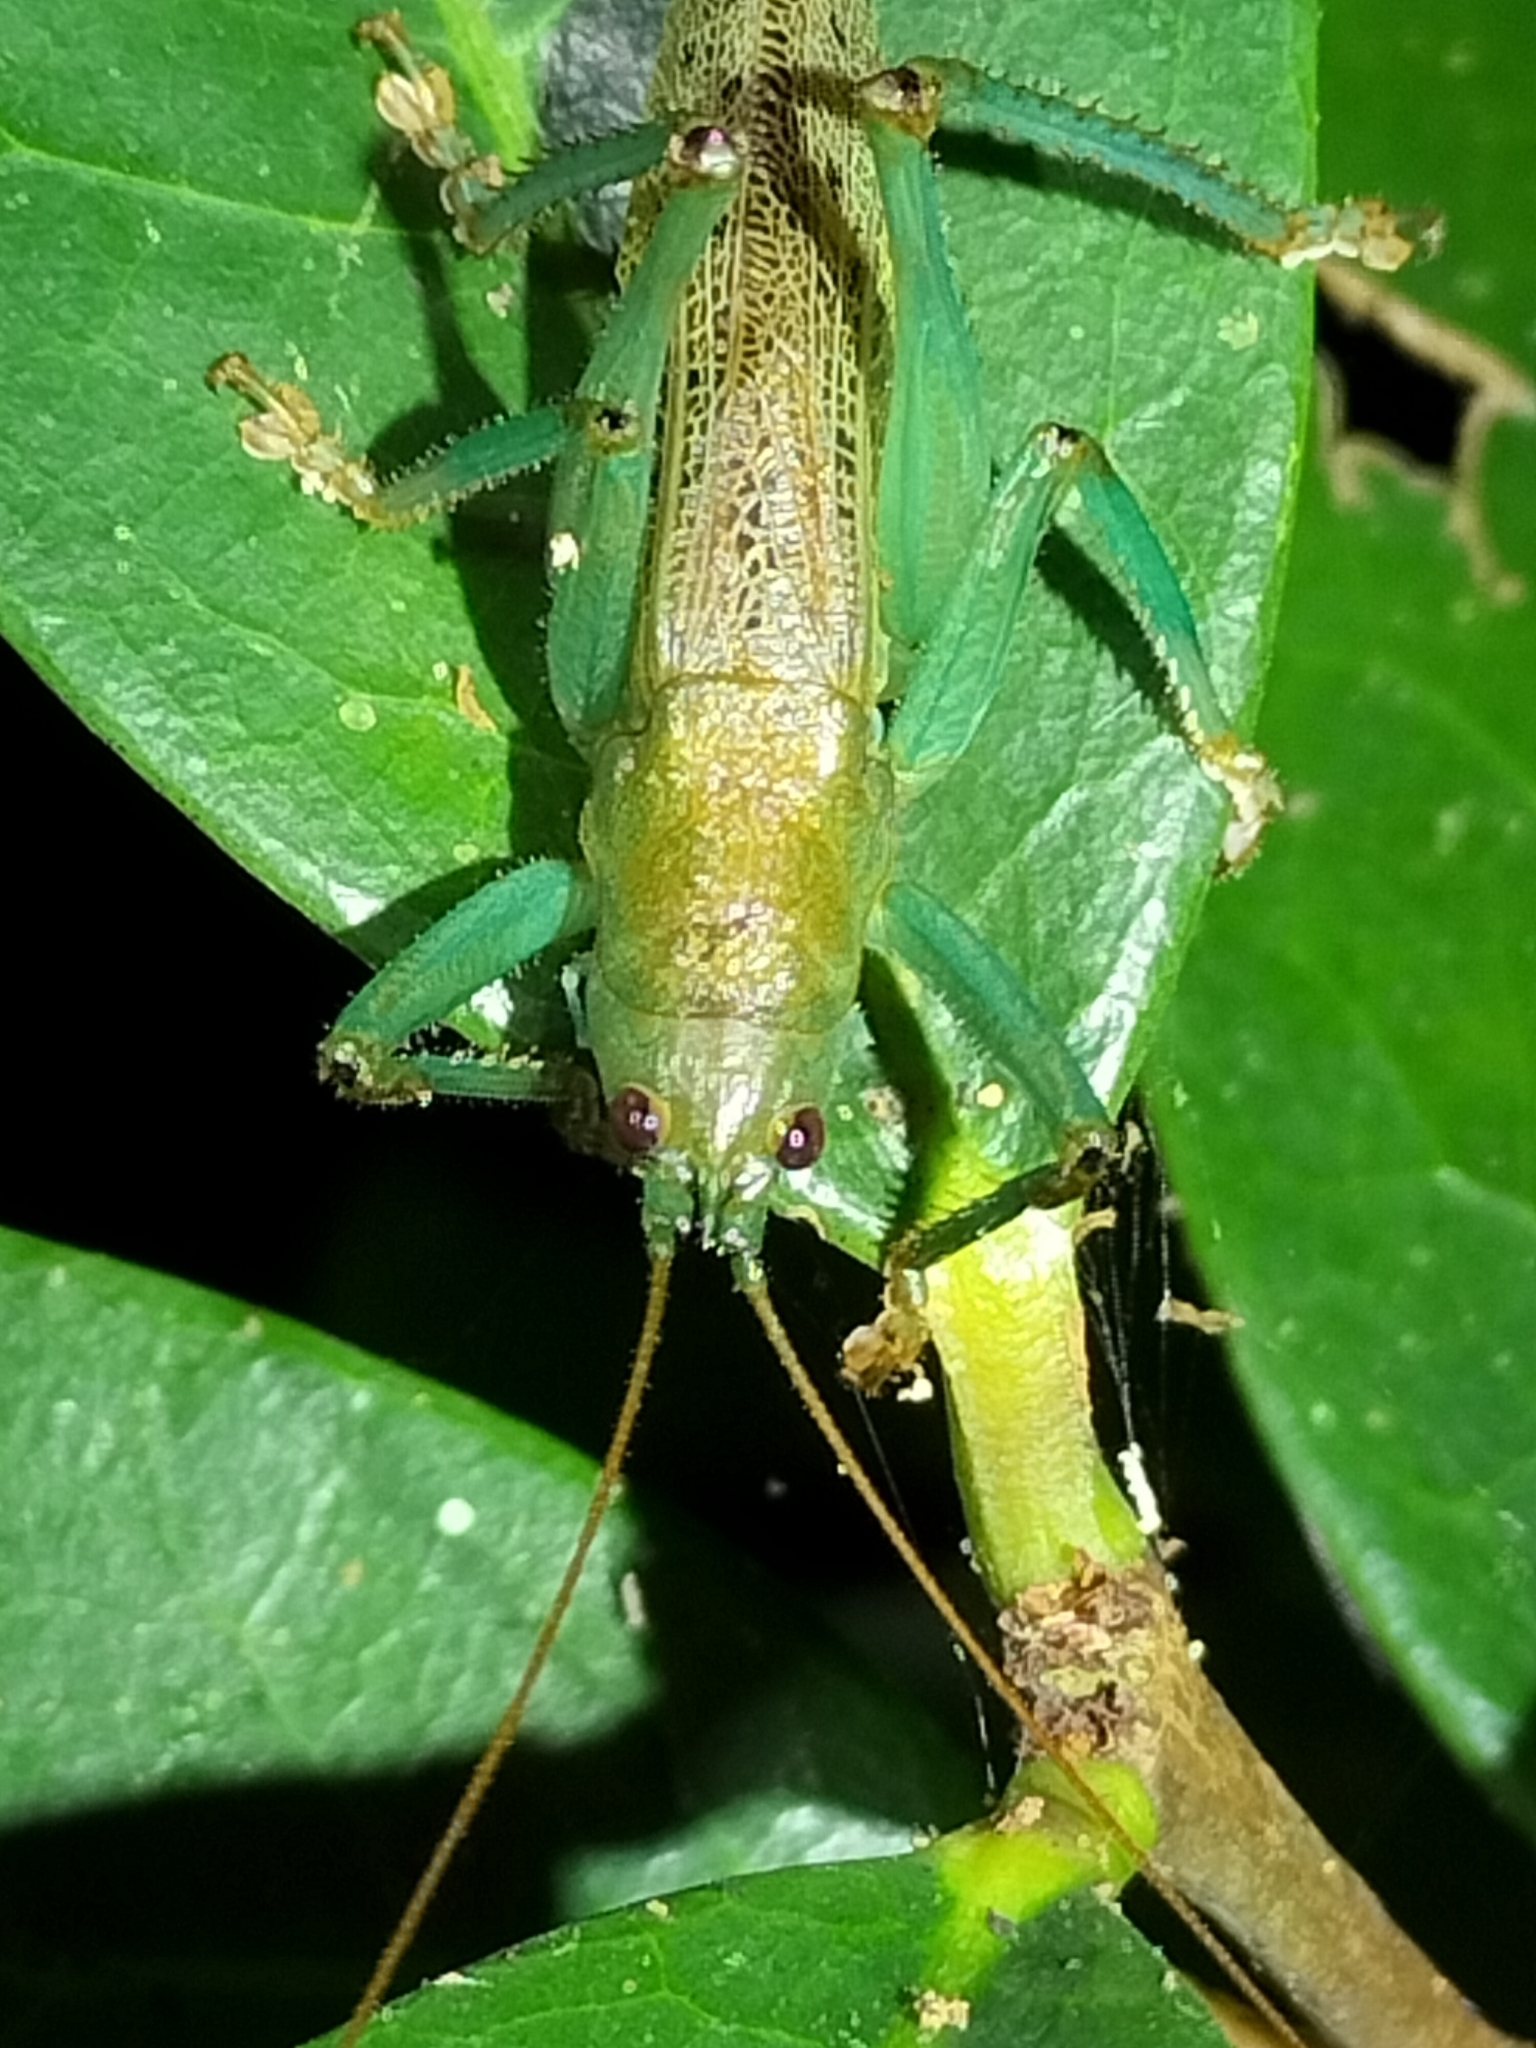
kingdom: Animalia
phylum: Arthropoda
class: Insecta
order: Orthoptera
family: Tettigoniidae
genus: Barbaragraecia
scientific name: Barbaragraecia unicorn
